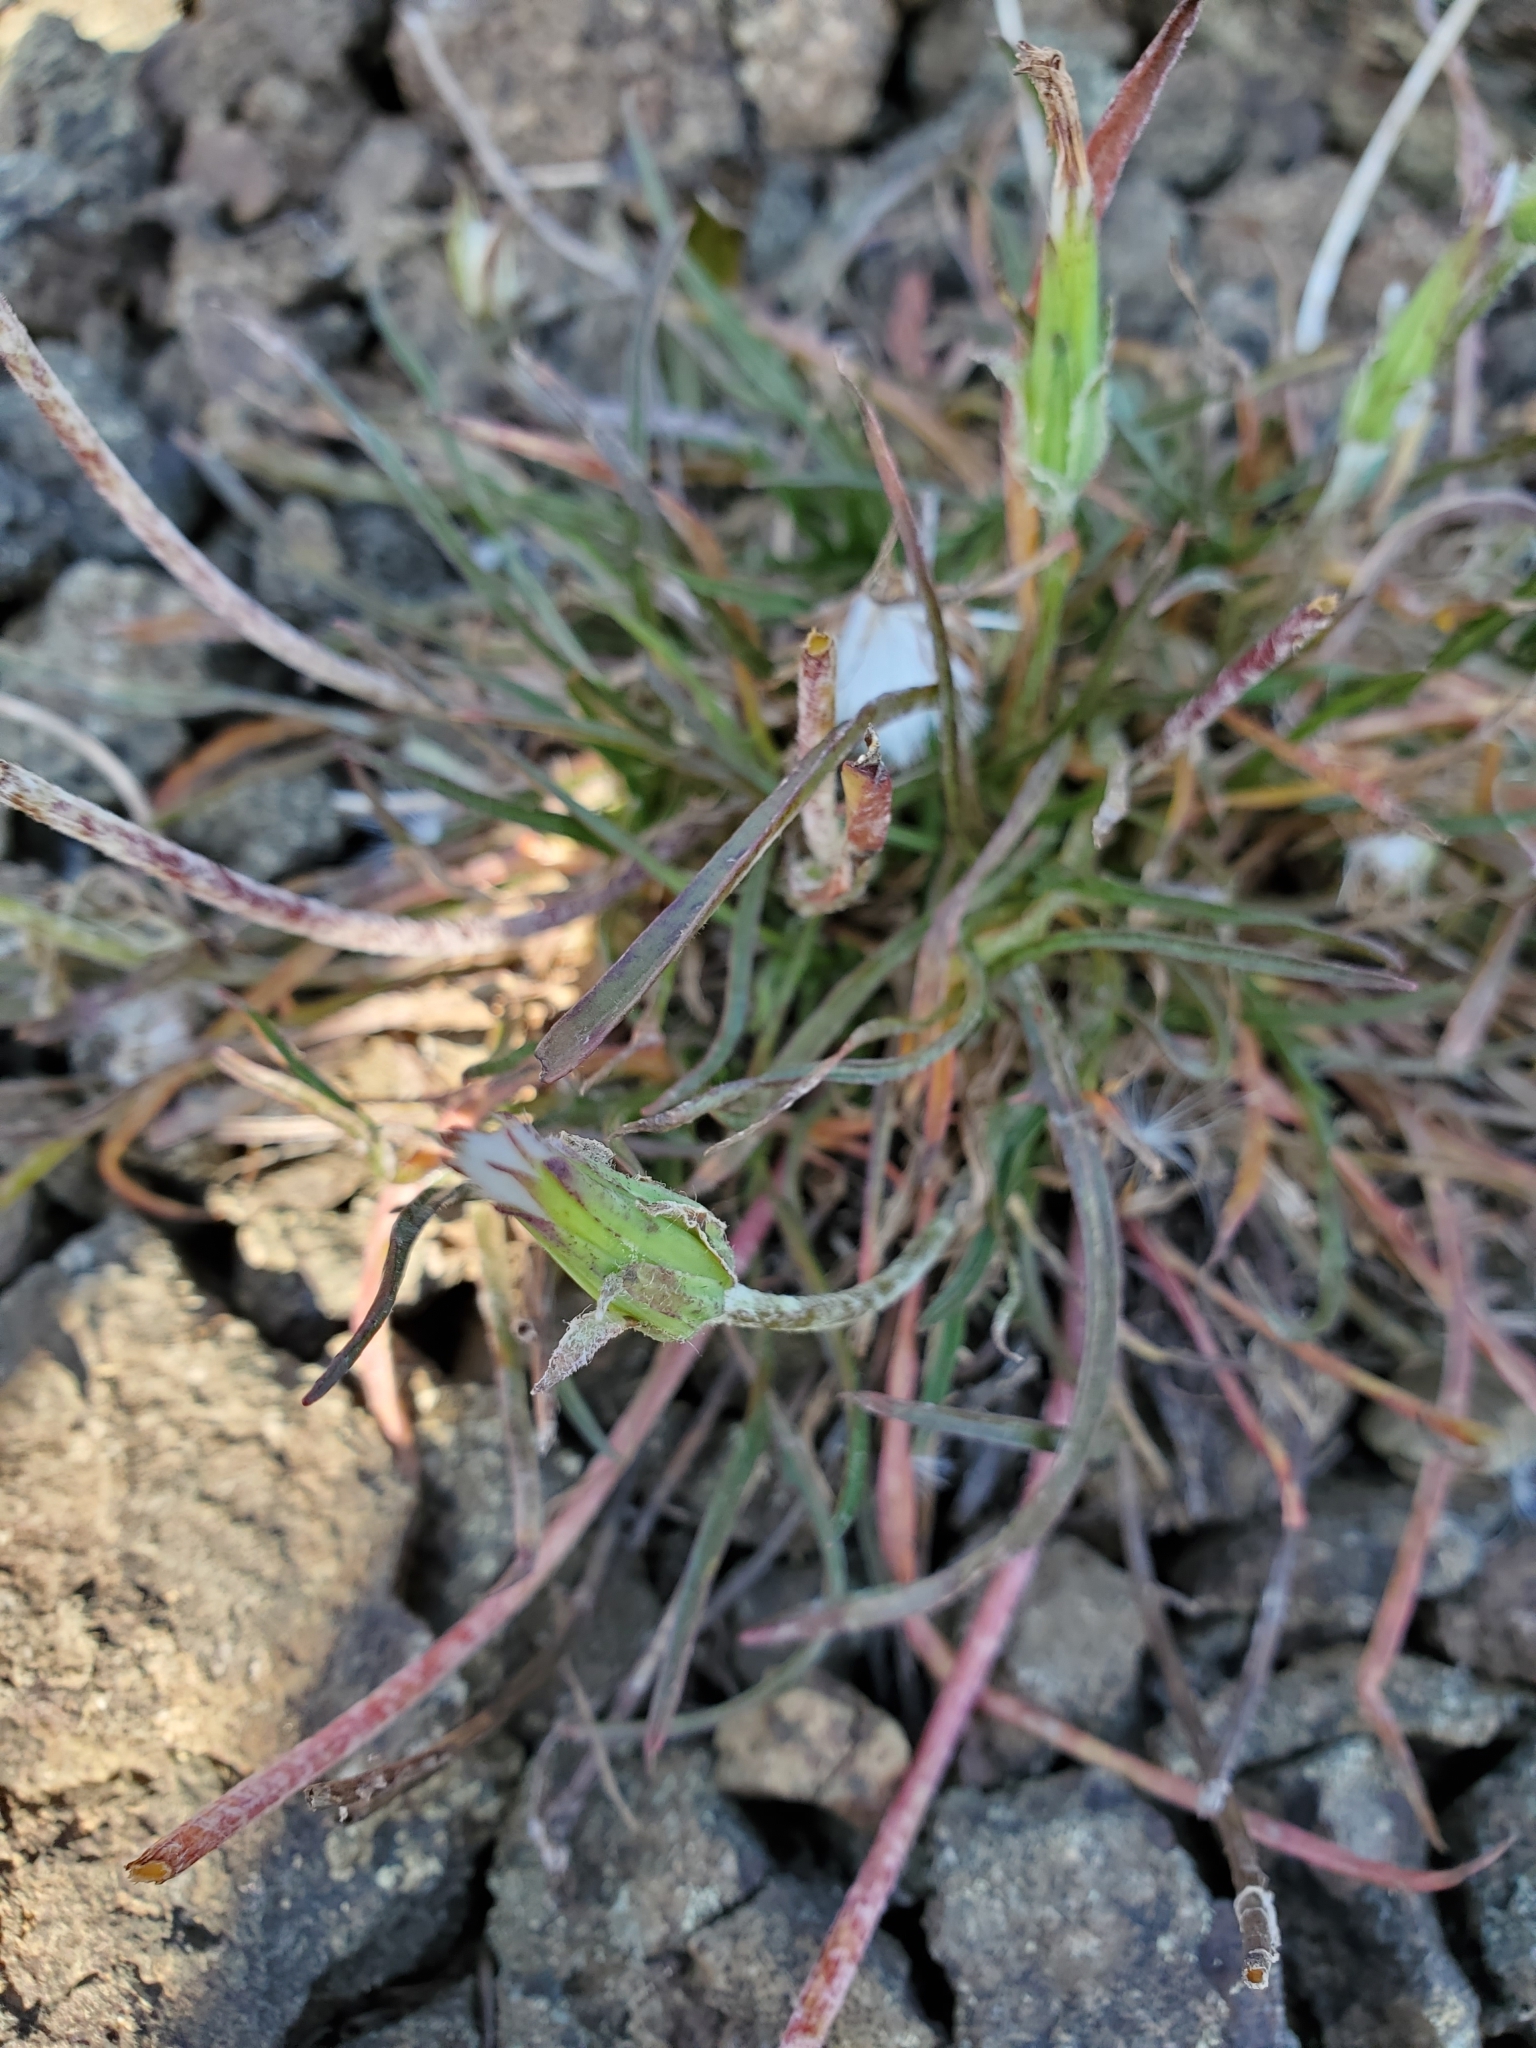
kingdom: Plantae
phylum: Tracheophyta
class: Magnoliopsida
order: Asterales
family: Asteraceae
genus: Agoseris
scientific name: Agoseris aurantiaca
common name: Mountain agoseris
